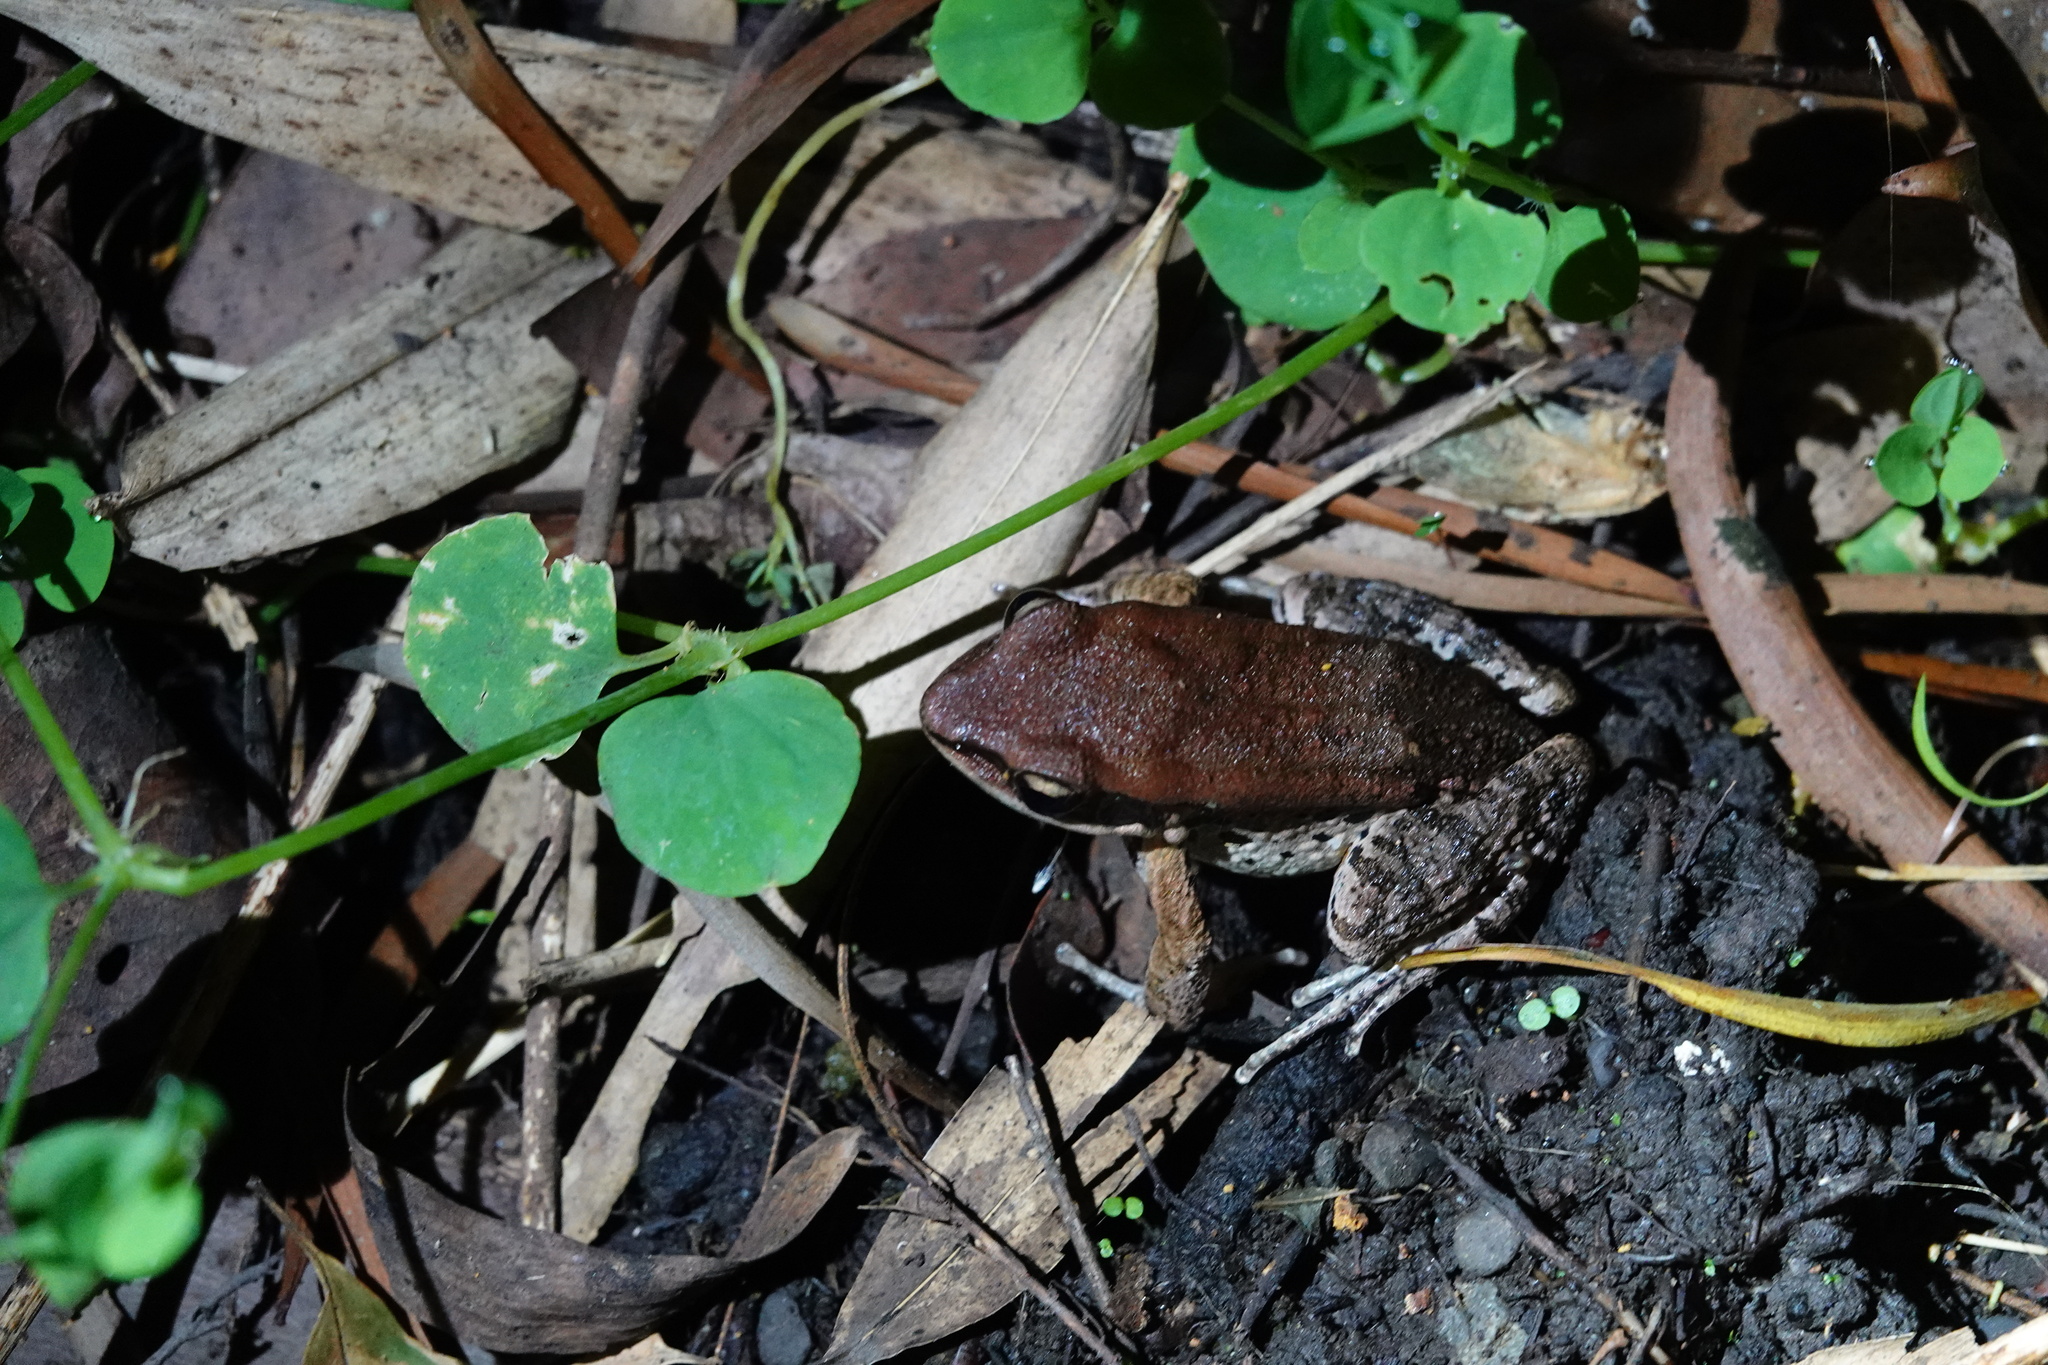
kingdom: Animalia
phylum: Chordata
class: Amphibia
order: Anura
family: Ranidae
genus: Hylarana
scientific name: Hylarana latouchii
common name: Broad-folded frog
